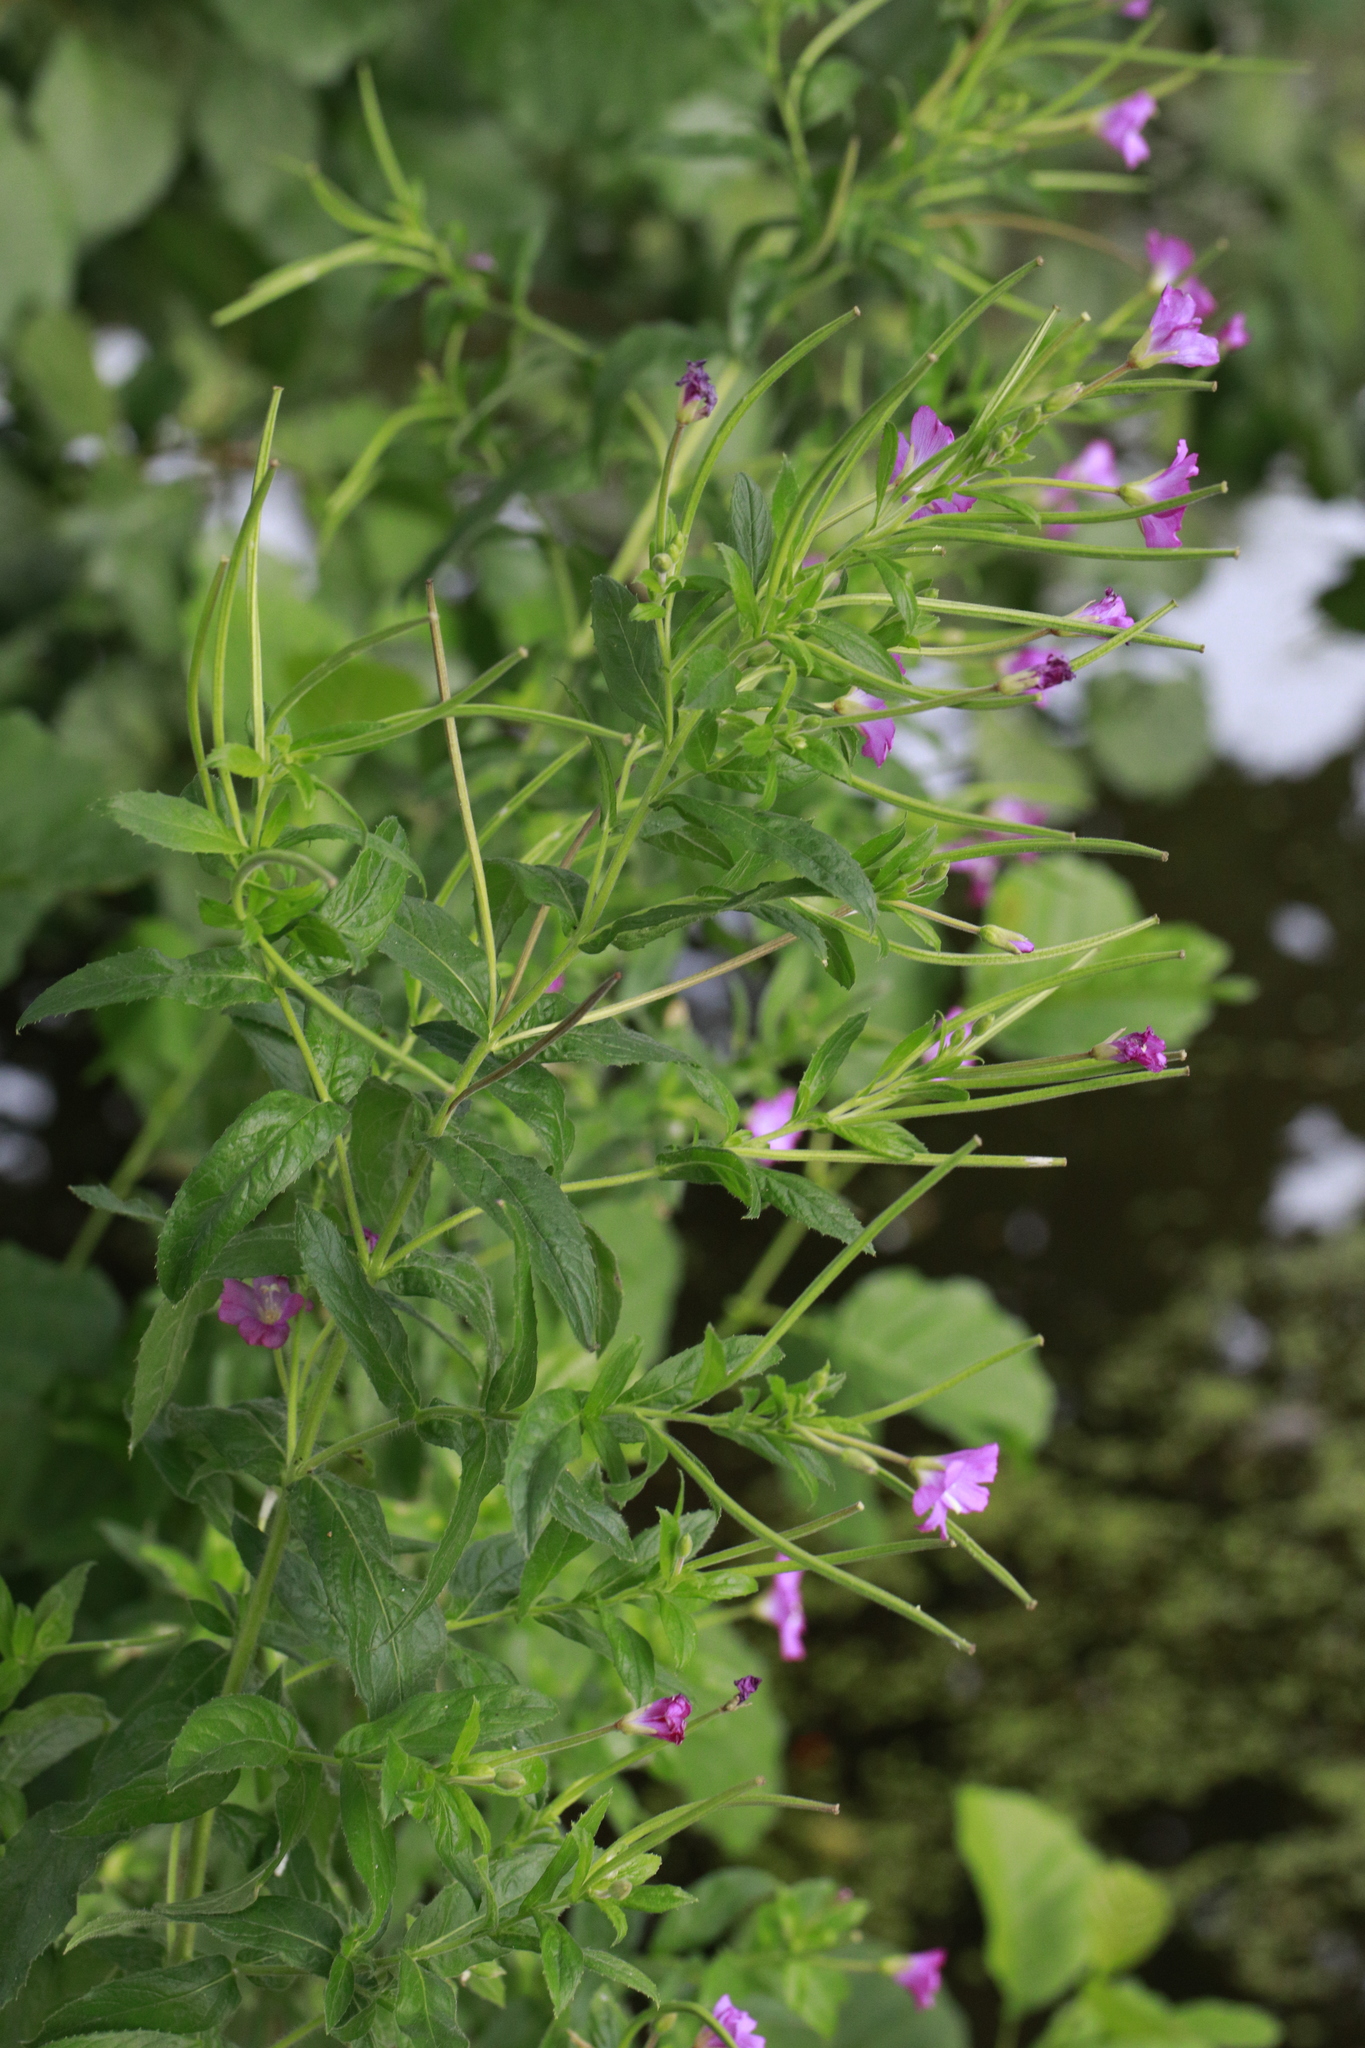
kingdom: Plantae
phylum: Tracheophyta
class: Magnoliopsida
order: Myrtales
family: Onagraceae
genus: Epilobium
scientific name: Epilobium hirsutum
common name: Great willowherb
